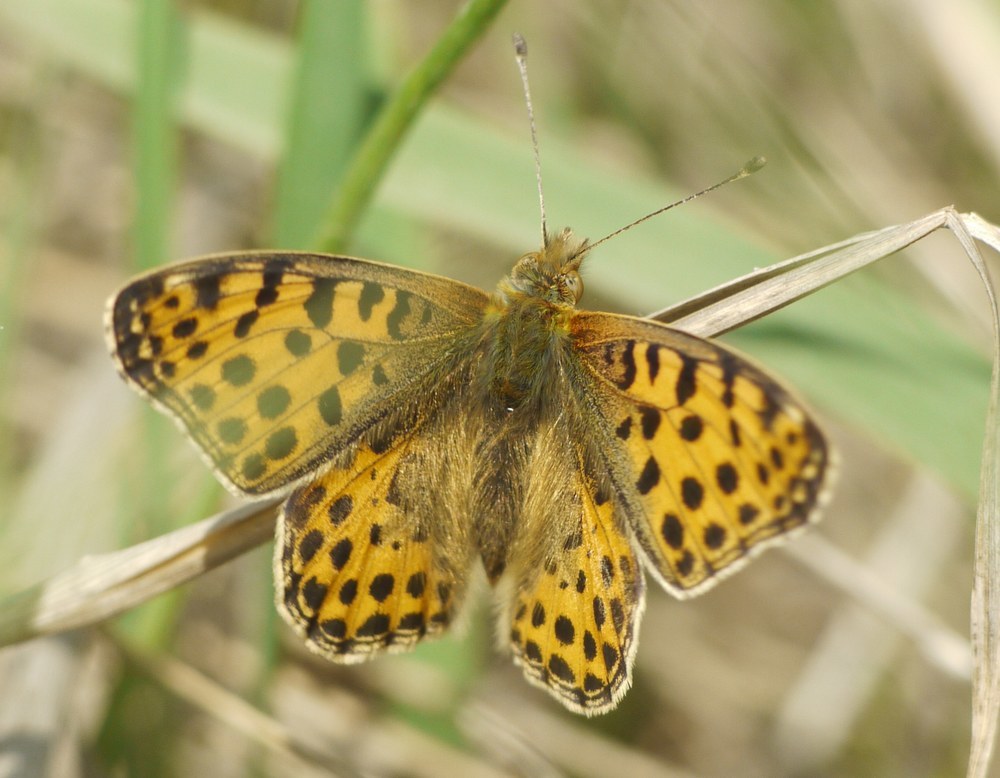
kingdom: Animalia
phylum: Arthropoda
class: Insecta
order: Lepidoptera
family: Nymphalidae
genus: Issoria
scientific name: Issoria lathonia
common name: Queen of spain fritillary
